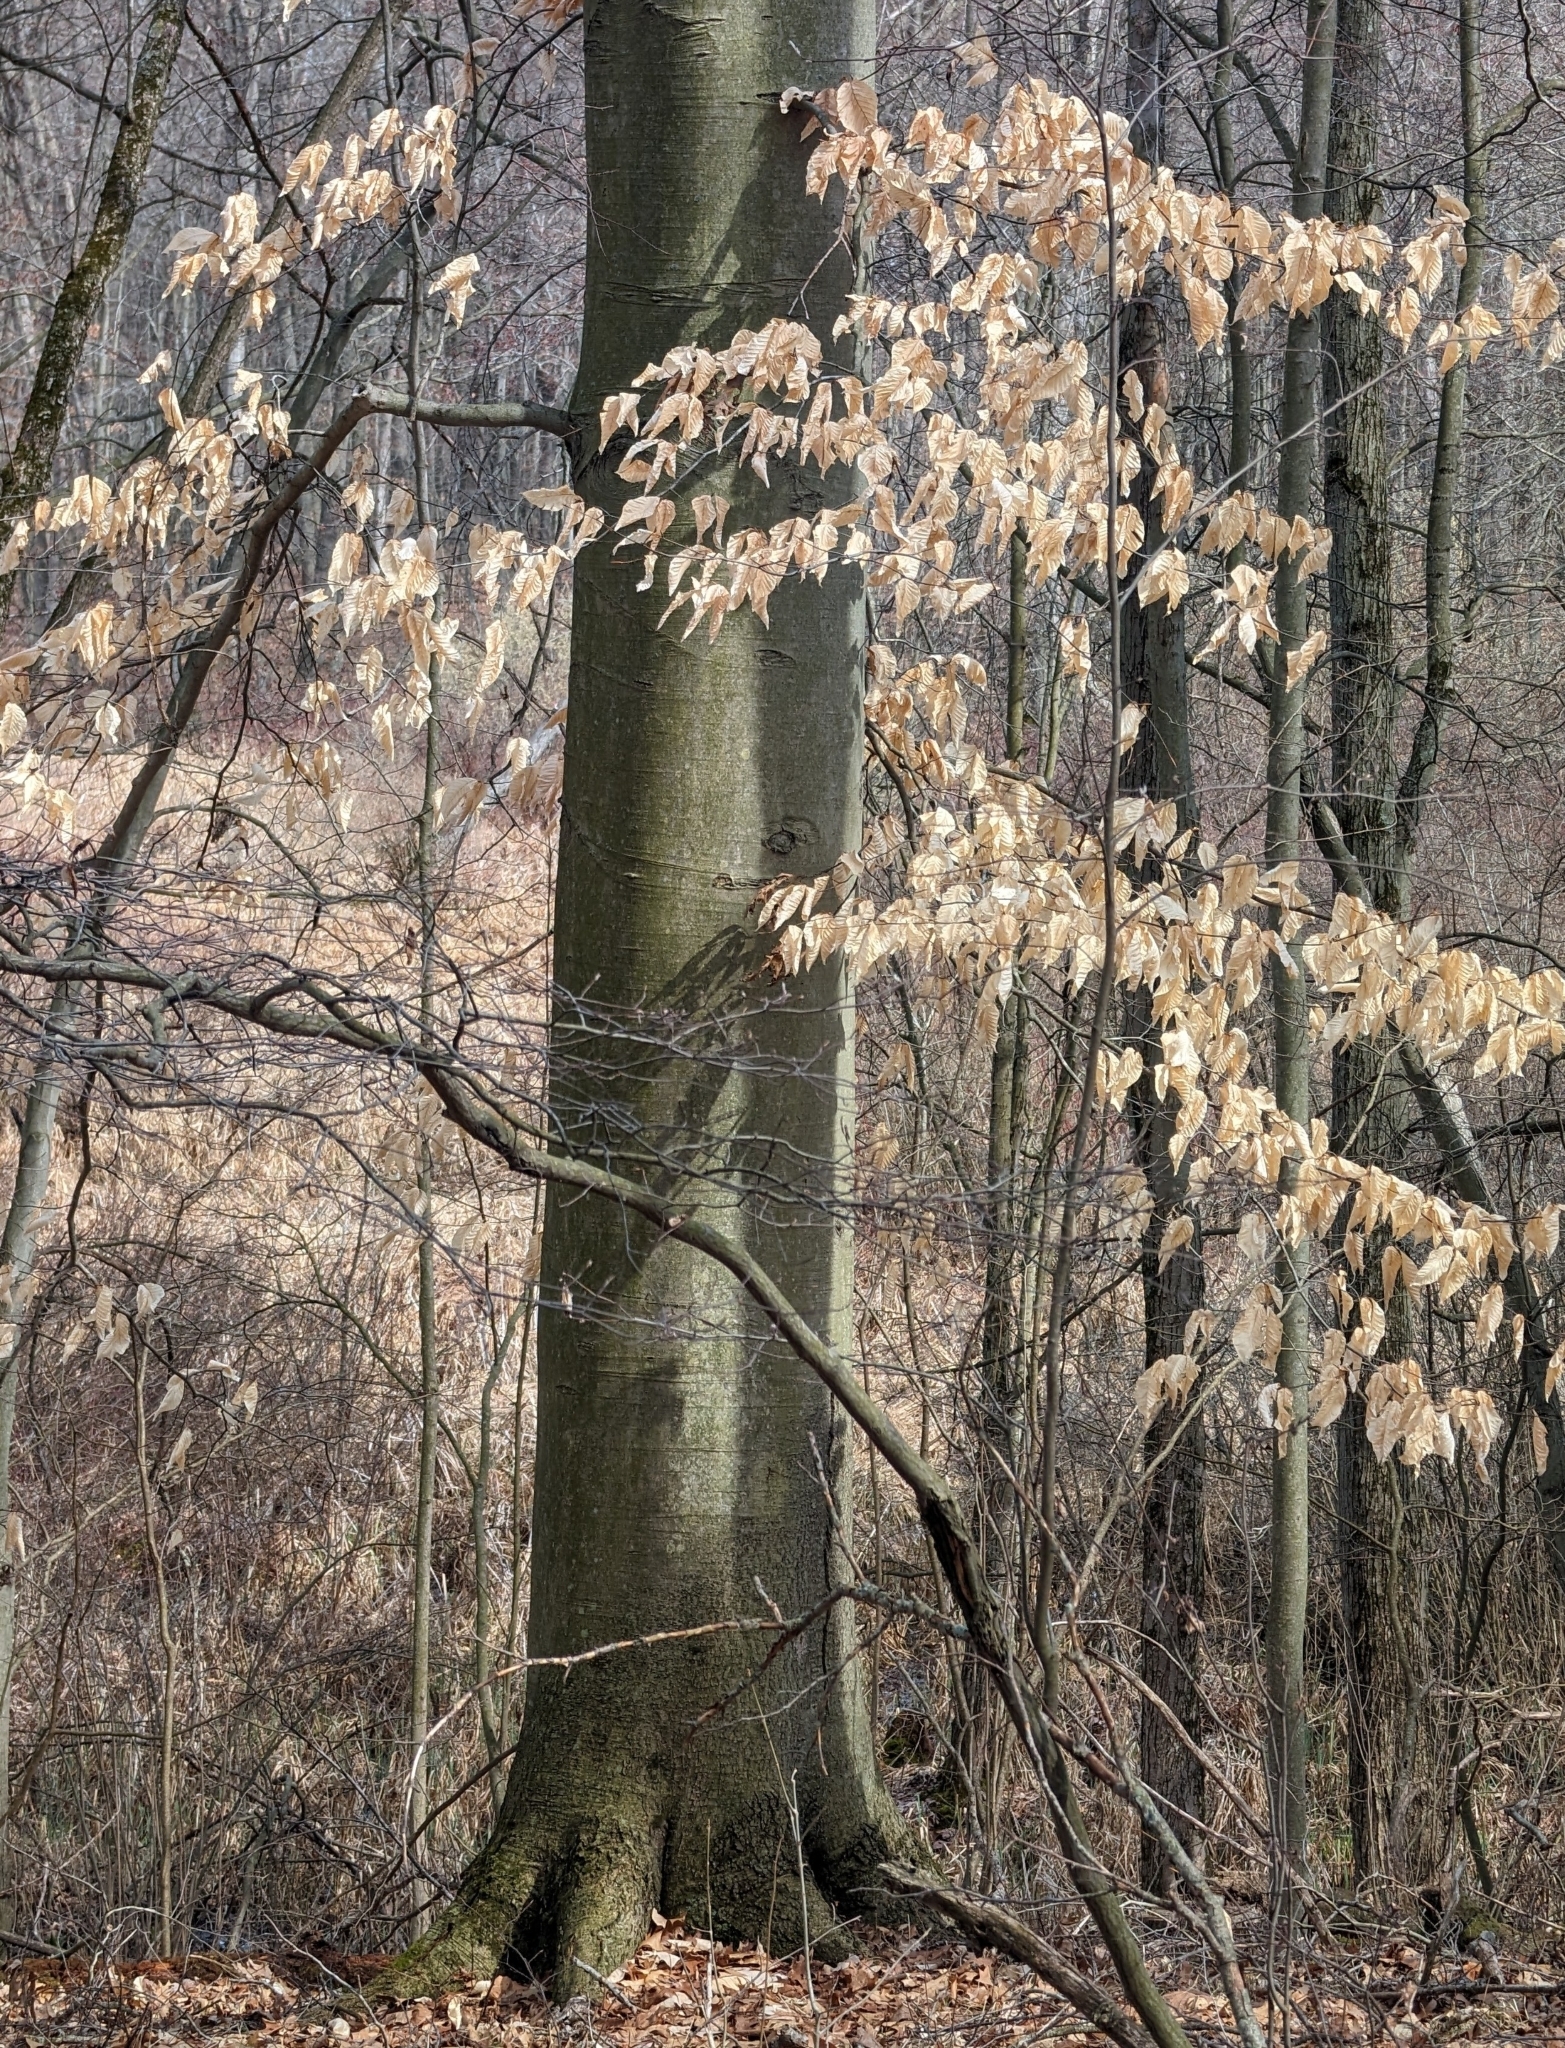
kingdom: Plantae
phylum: Tracheophyta
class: Magnoliopsida
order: Fagales
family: Fagaceae
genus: Fagus
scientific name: Fagus grandifolia
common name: American beech
